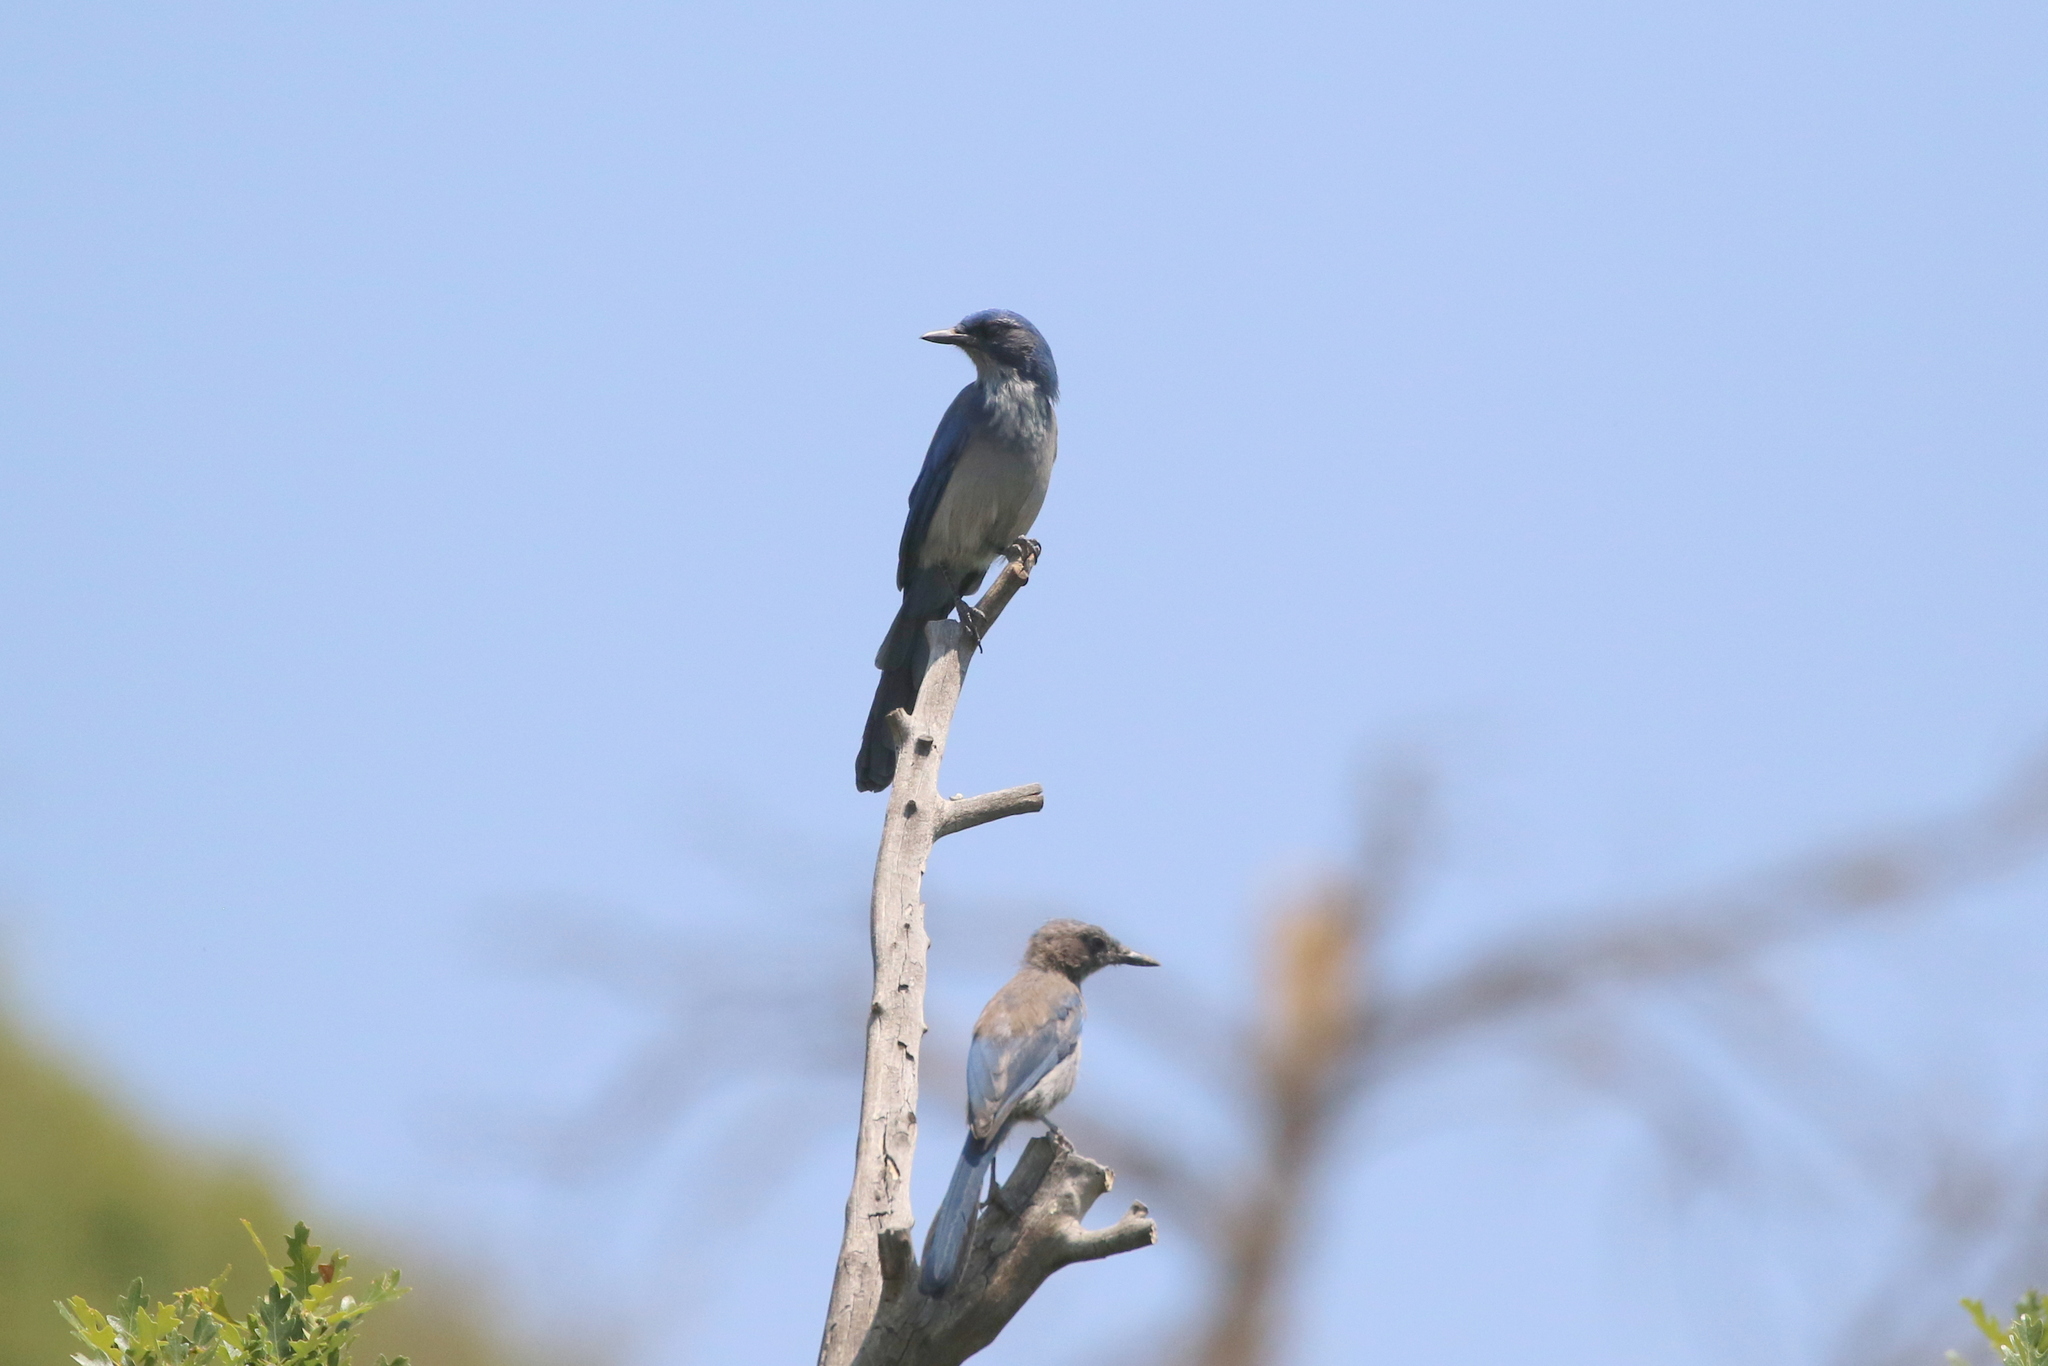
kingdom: Animalia
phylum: Chordata
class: Aves
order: Passeriformes
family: Corvidae
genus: Aphelocoma
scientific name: Aphelocoma woodhouseii
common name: Woodhouse's scrub-jay
